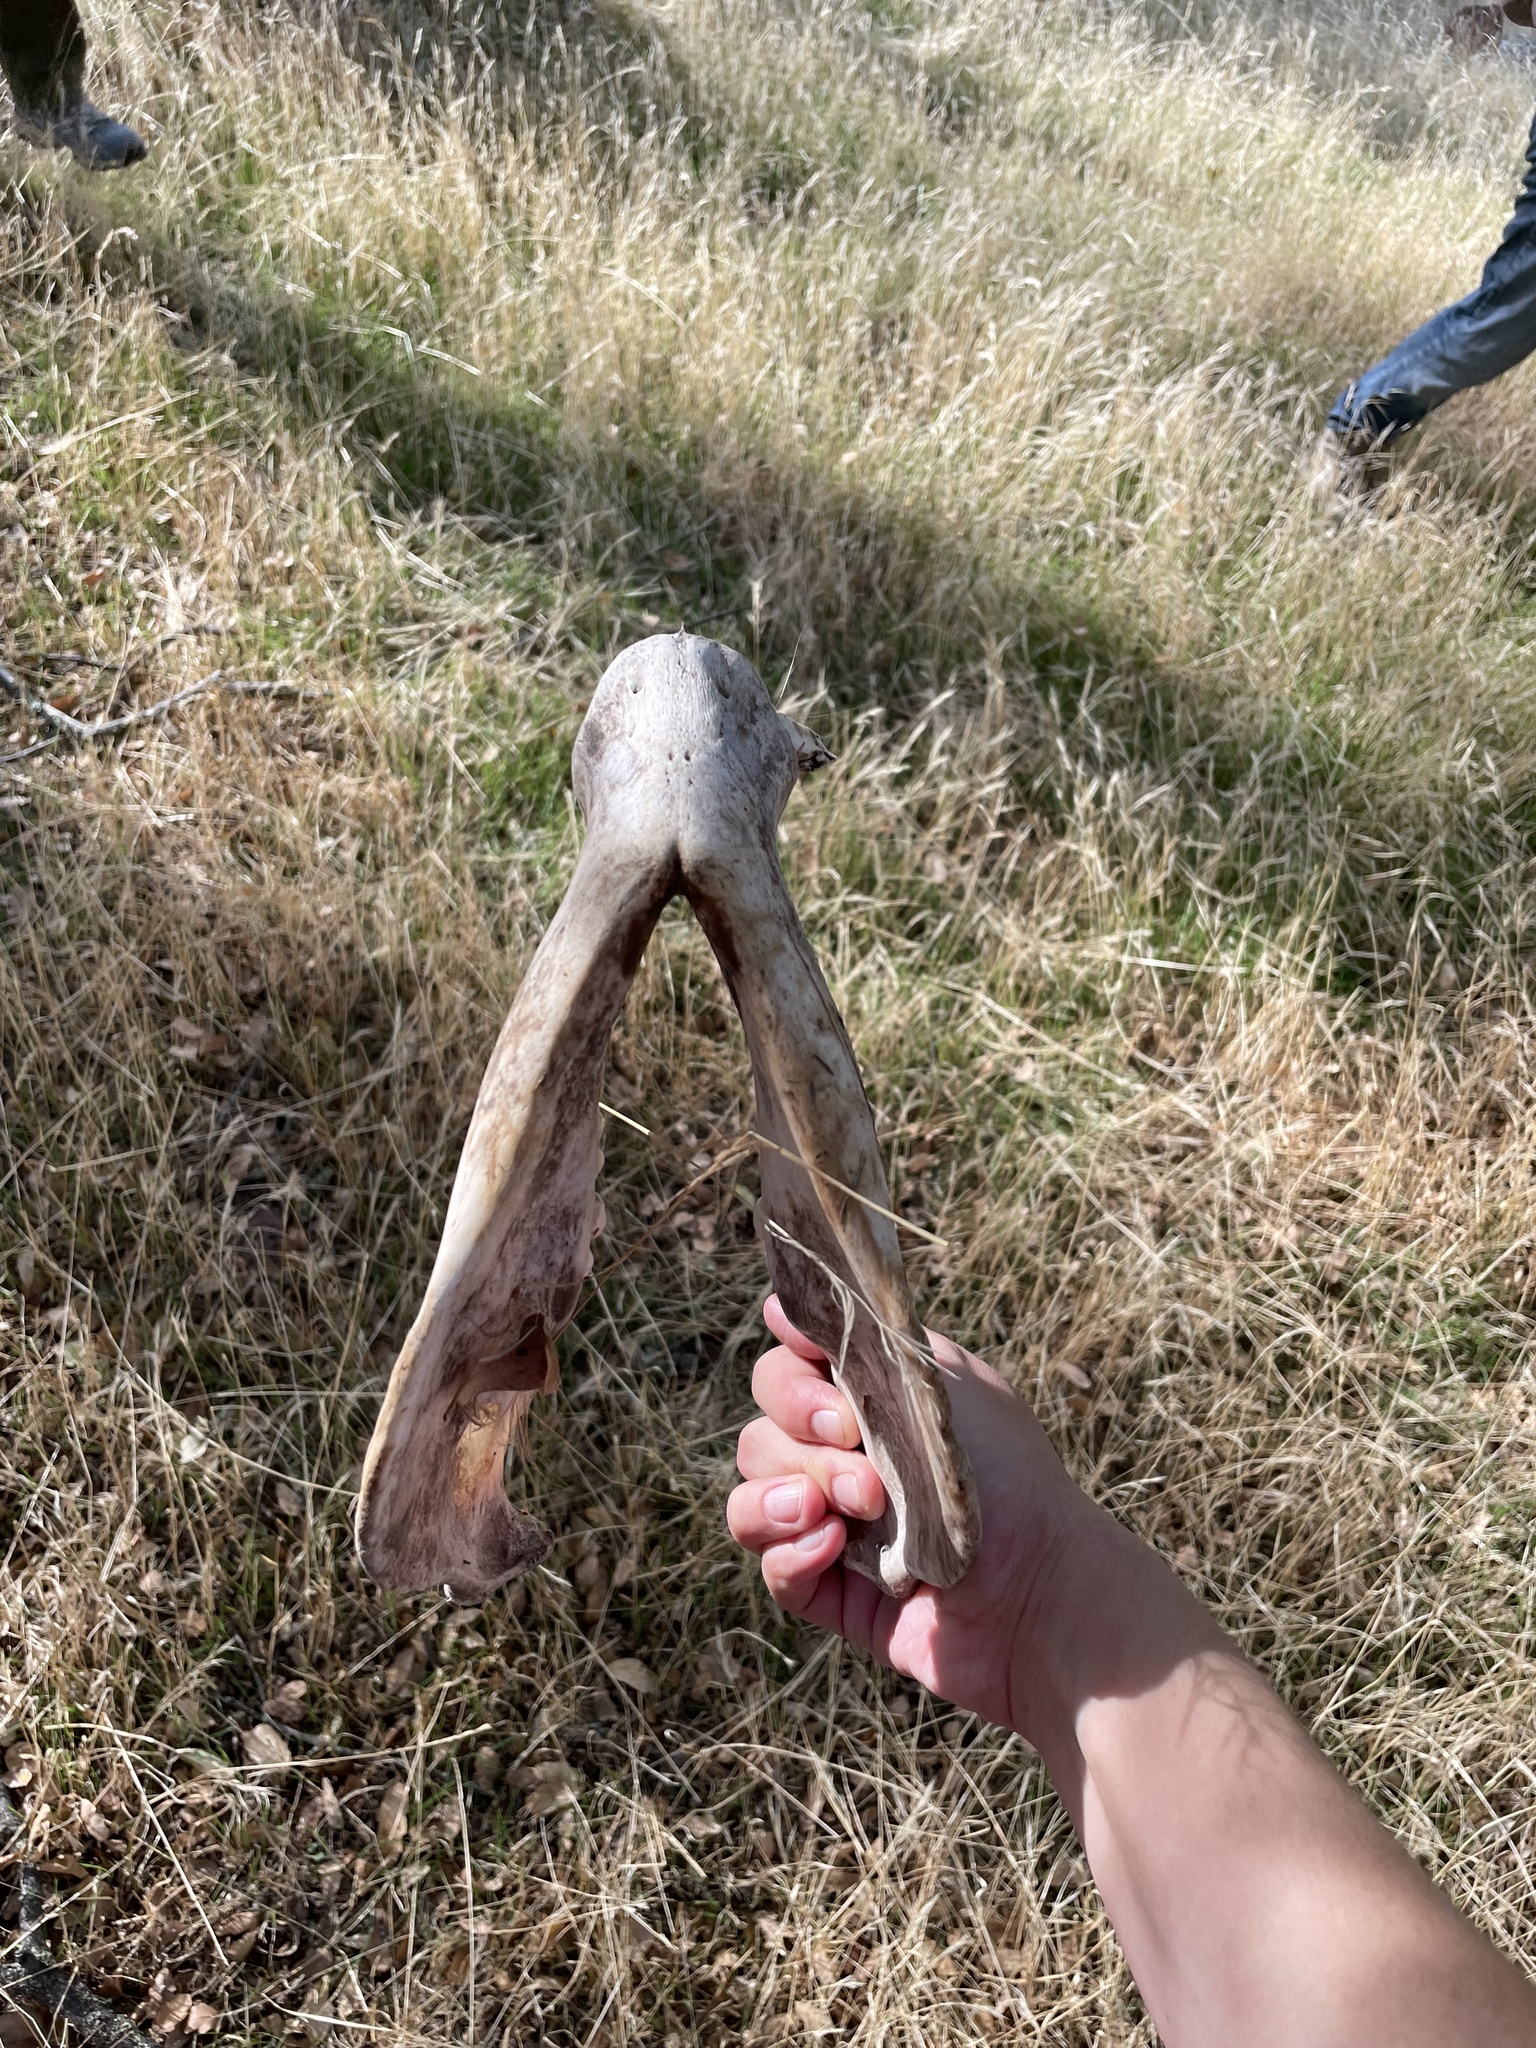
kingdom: Animalia
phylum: Chordata
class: Mammalia
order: Artiodactyla
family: Suidae
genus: Sus
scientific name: Sus scrofa
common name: Wild boar
